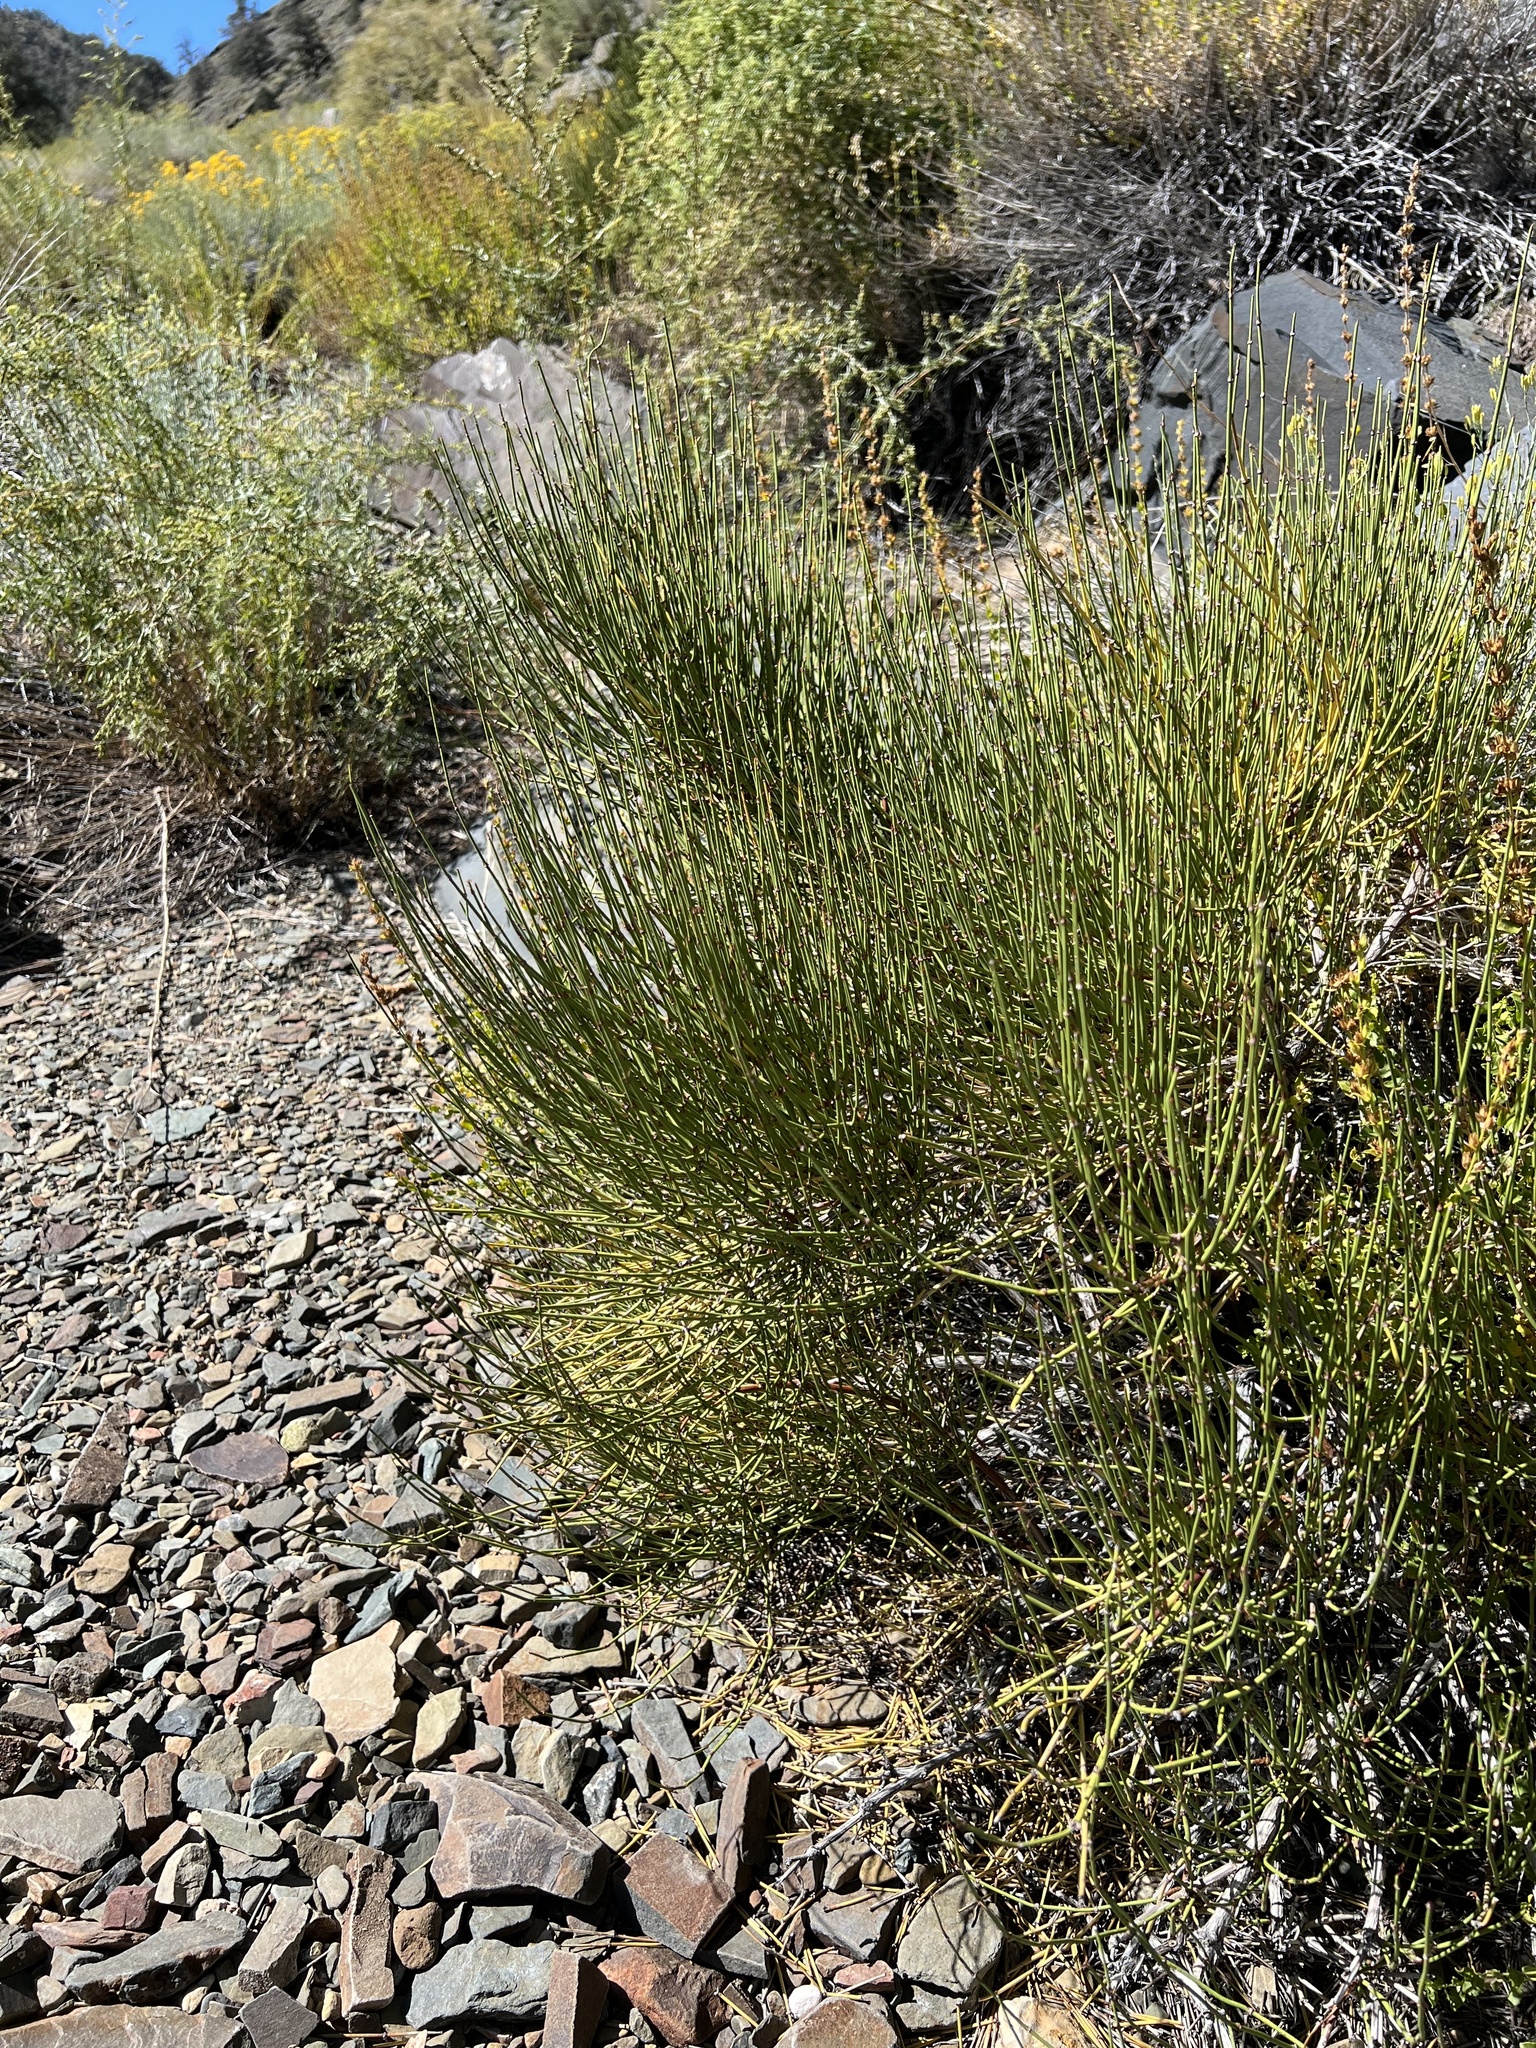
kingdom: Plantae
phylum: Tracheophyta
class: Gnetopsida
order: Ephedrales
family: Ephedraceae
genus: Ephedra
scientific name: Ephedra viridis
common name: Green ephedra
